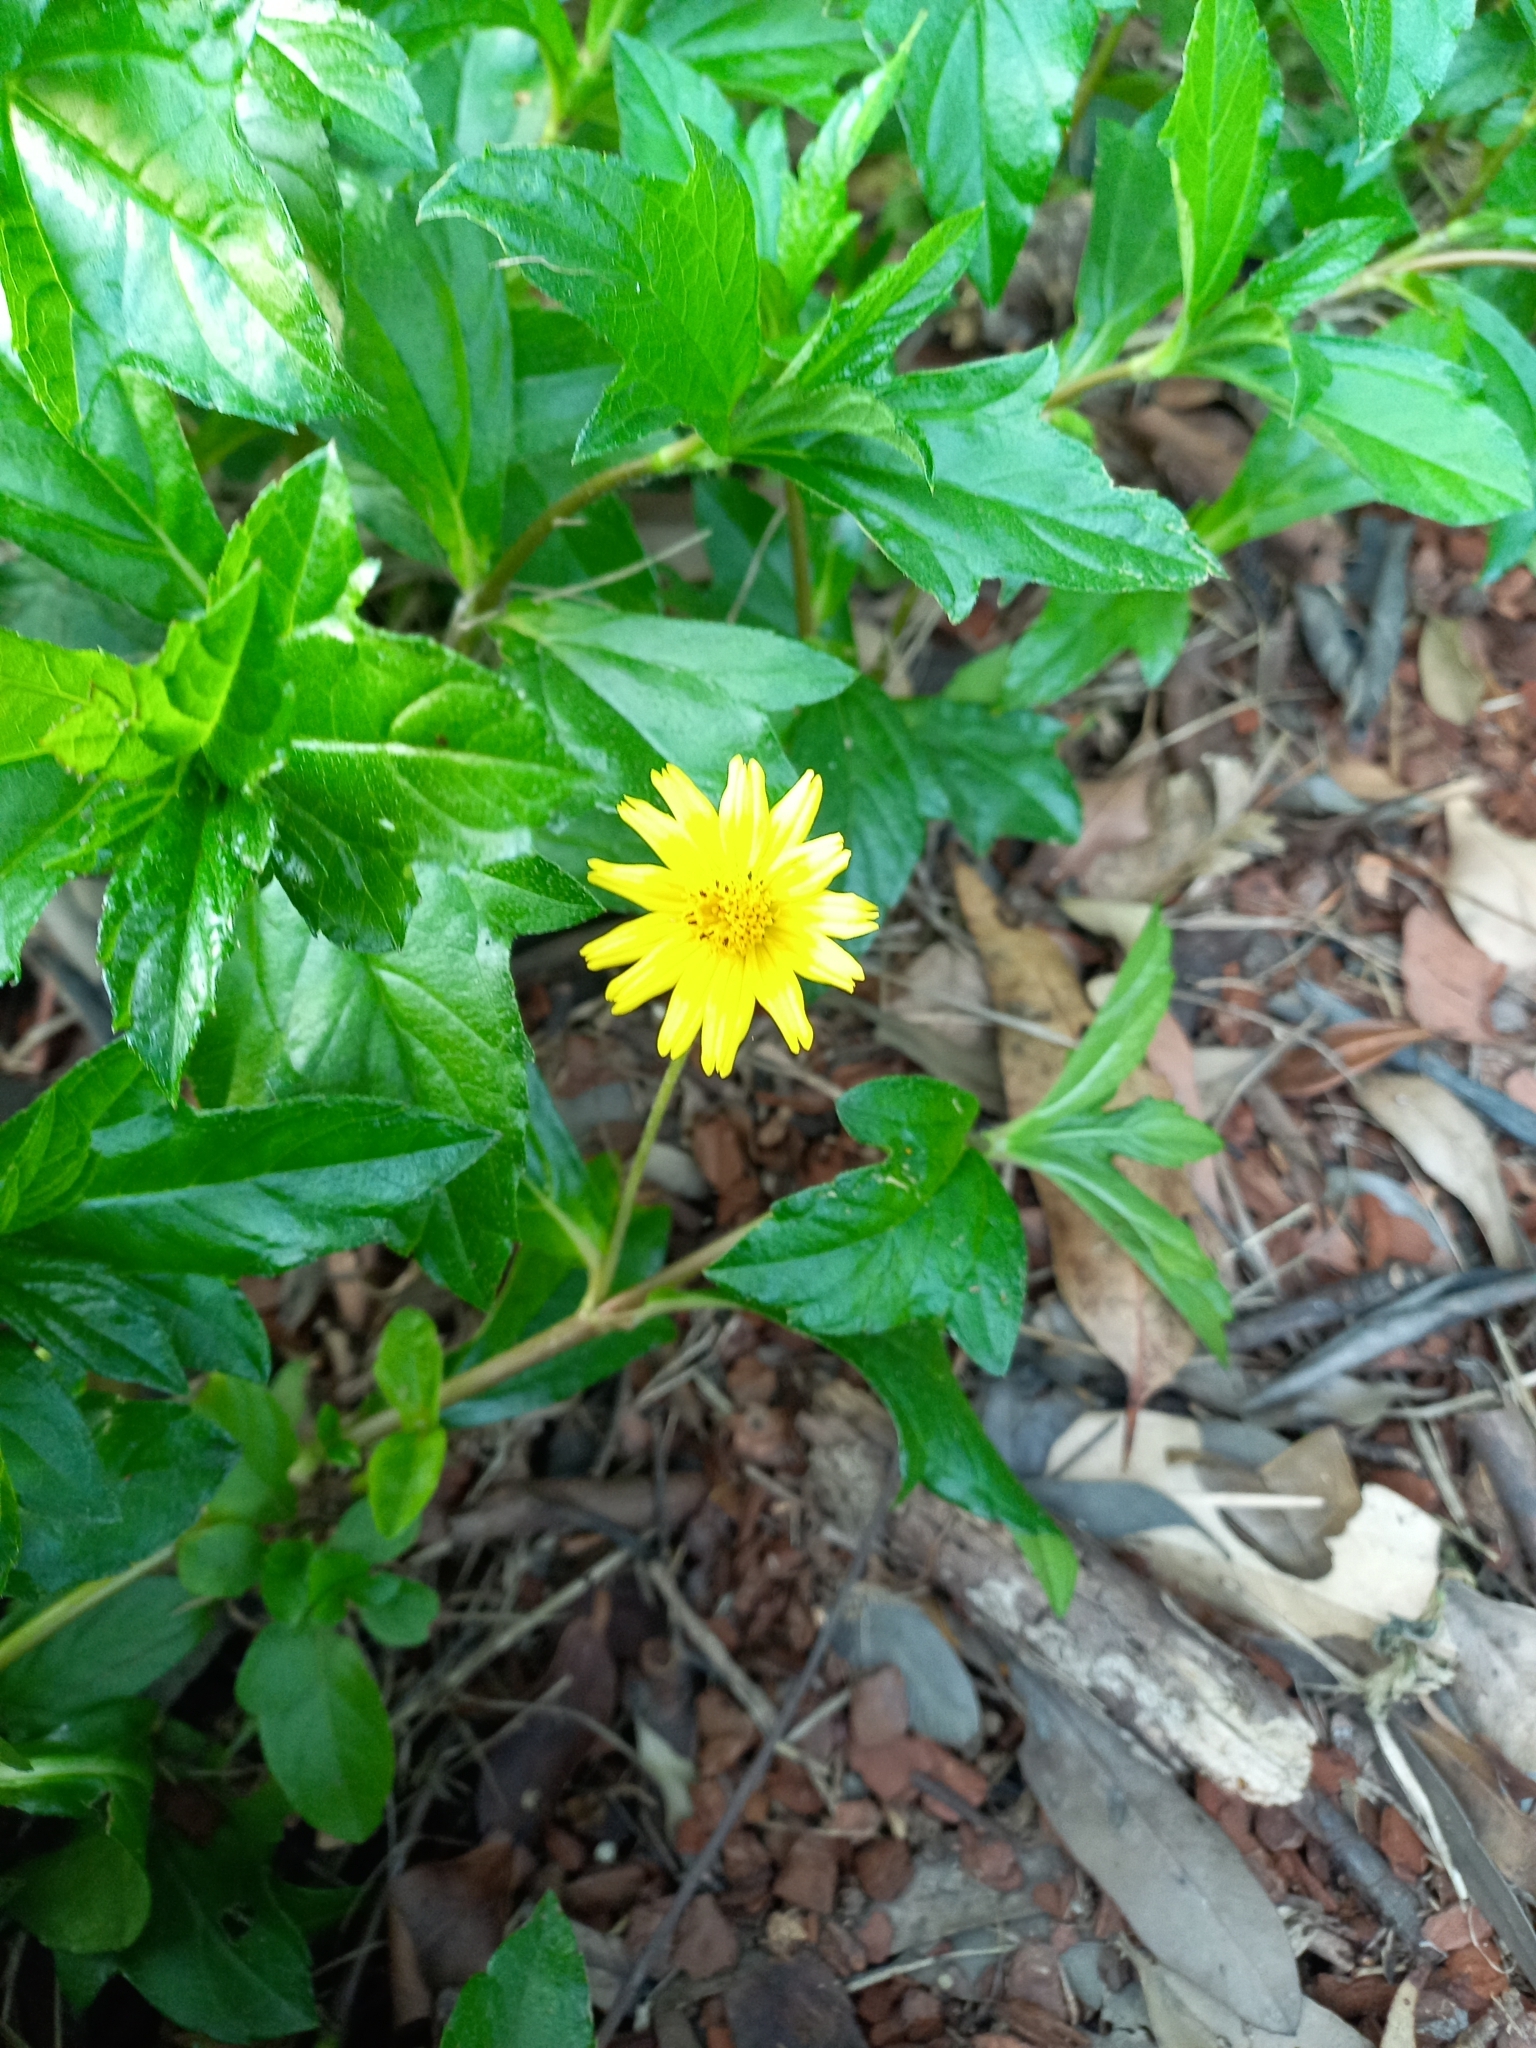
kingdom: Plantae
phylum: Tracheophyta
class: Magnoliopsida
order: Asterales
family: Asteraceae
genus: Sphagneticola
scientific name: Sphagneticola trilobata
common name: Bay biscayne creeping-oxeye
